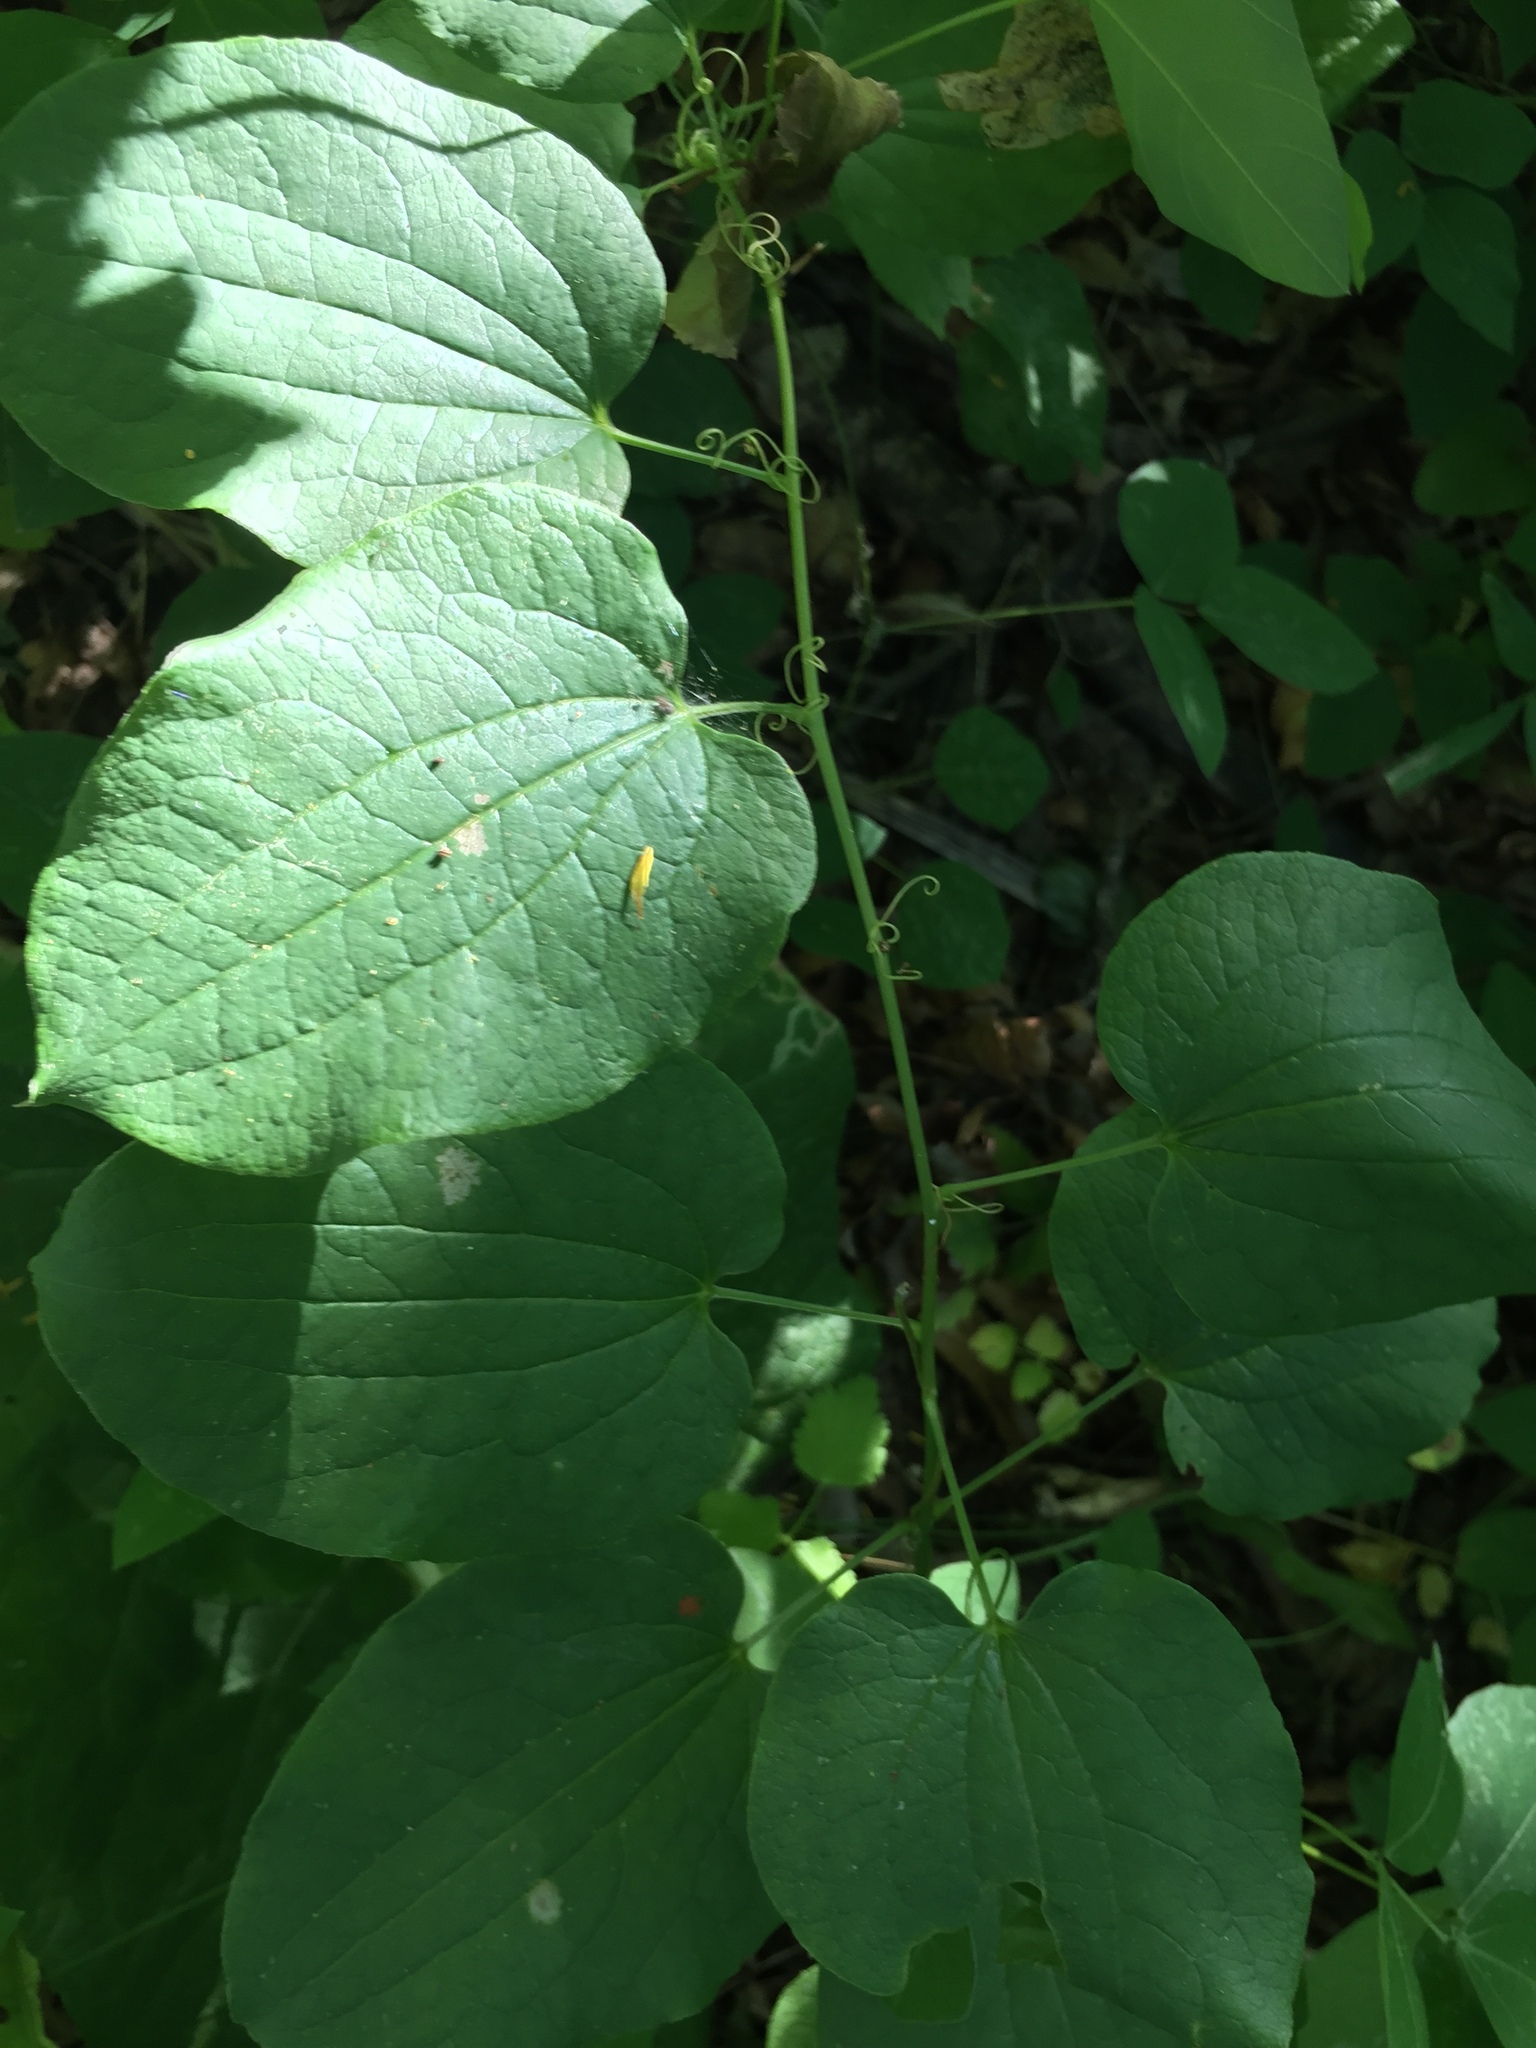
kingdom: Plantae
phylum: Tracheophyta
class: Liliopsida
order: Liliales
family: Smilacaceae
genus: Smilax
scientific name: Smilax lasioneura
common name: Blue ridge carrionflower
